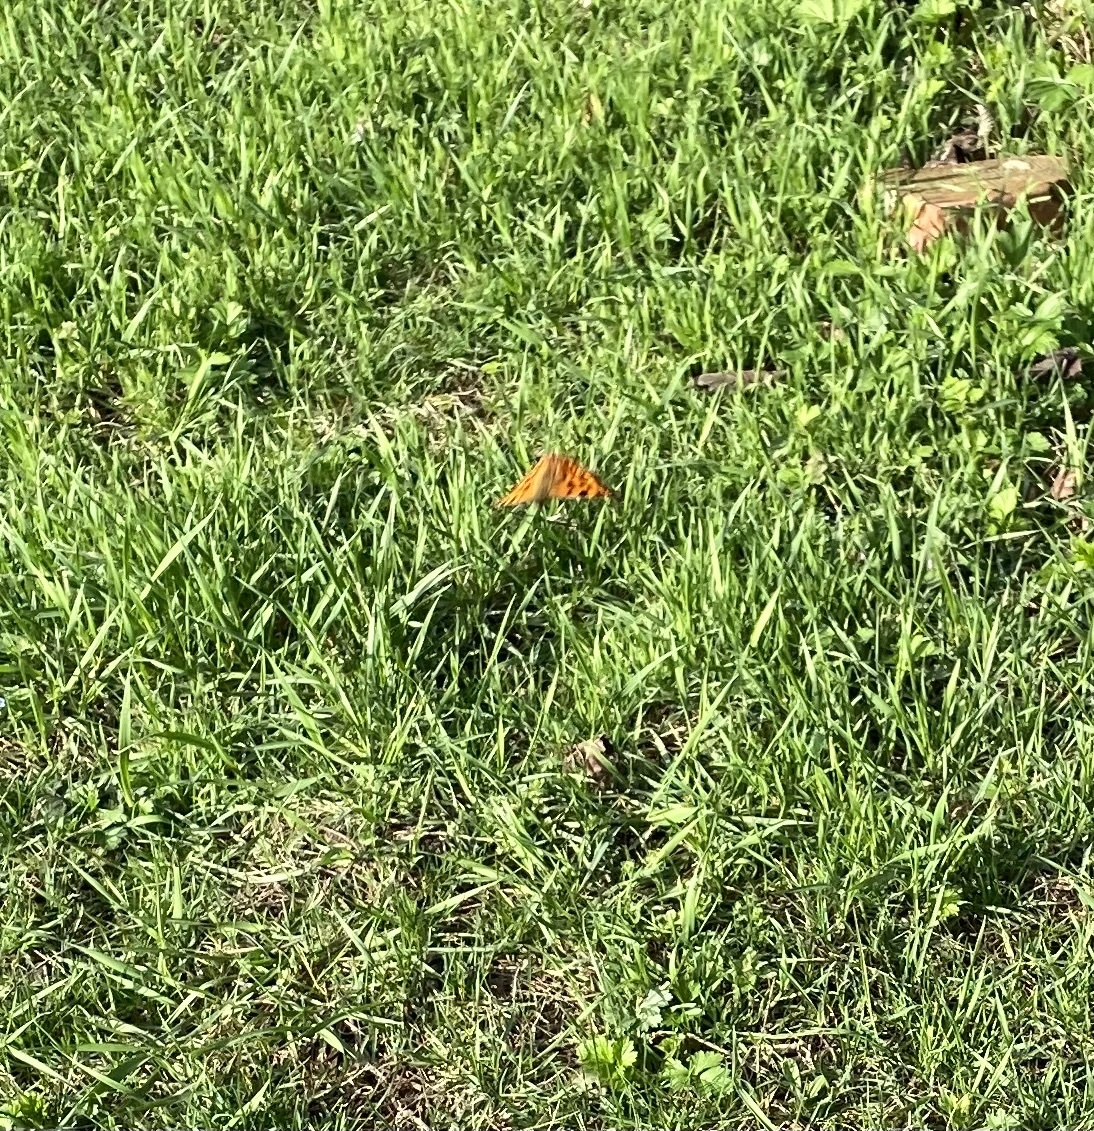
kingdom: Animalia
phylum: Arthropoda
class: Insecta
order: Lepidoptera
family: Nymphalidae
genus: Polygonia
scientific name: Polygonia c-album
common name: Comma
